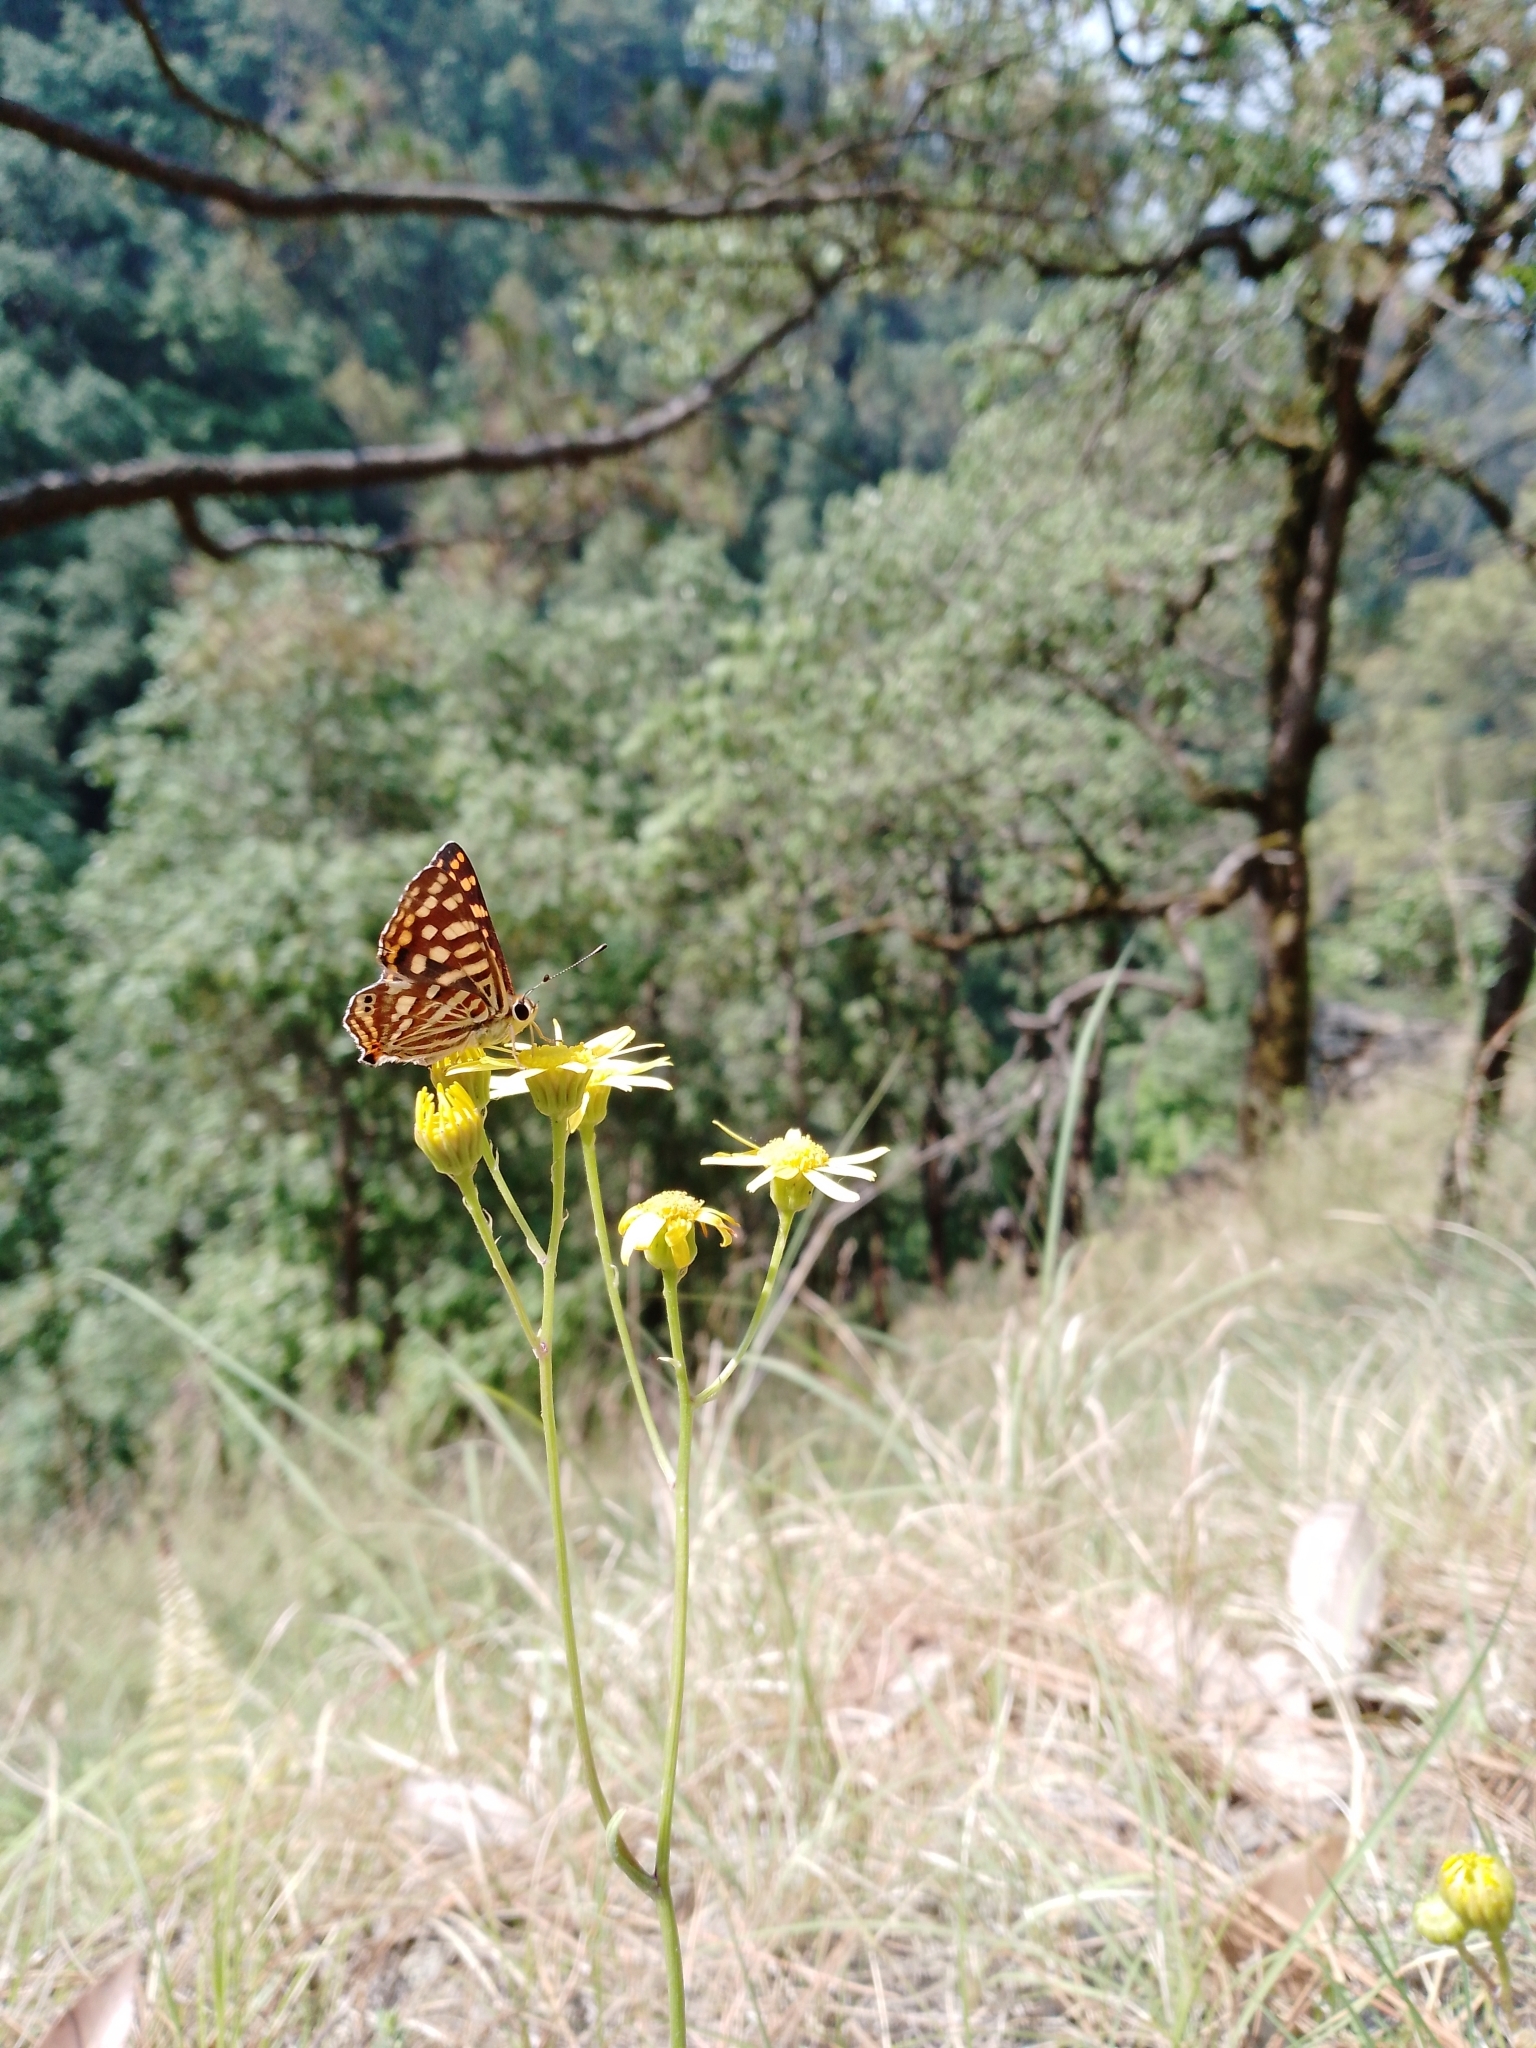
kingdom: Animalia
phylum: Arthropoda
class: Insecta
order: Lepidoptera
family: Lycaenidae
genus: Dodona
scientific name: Dodona durga
